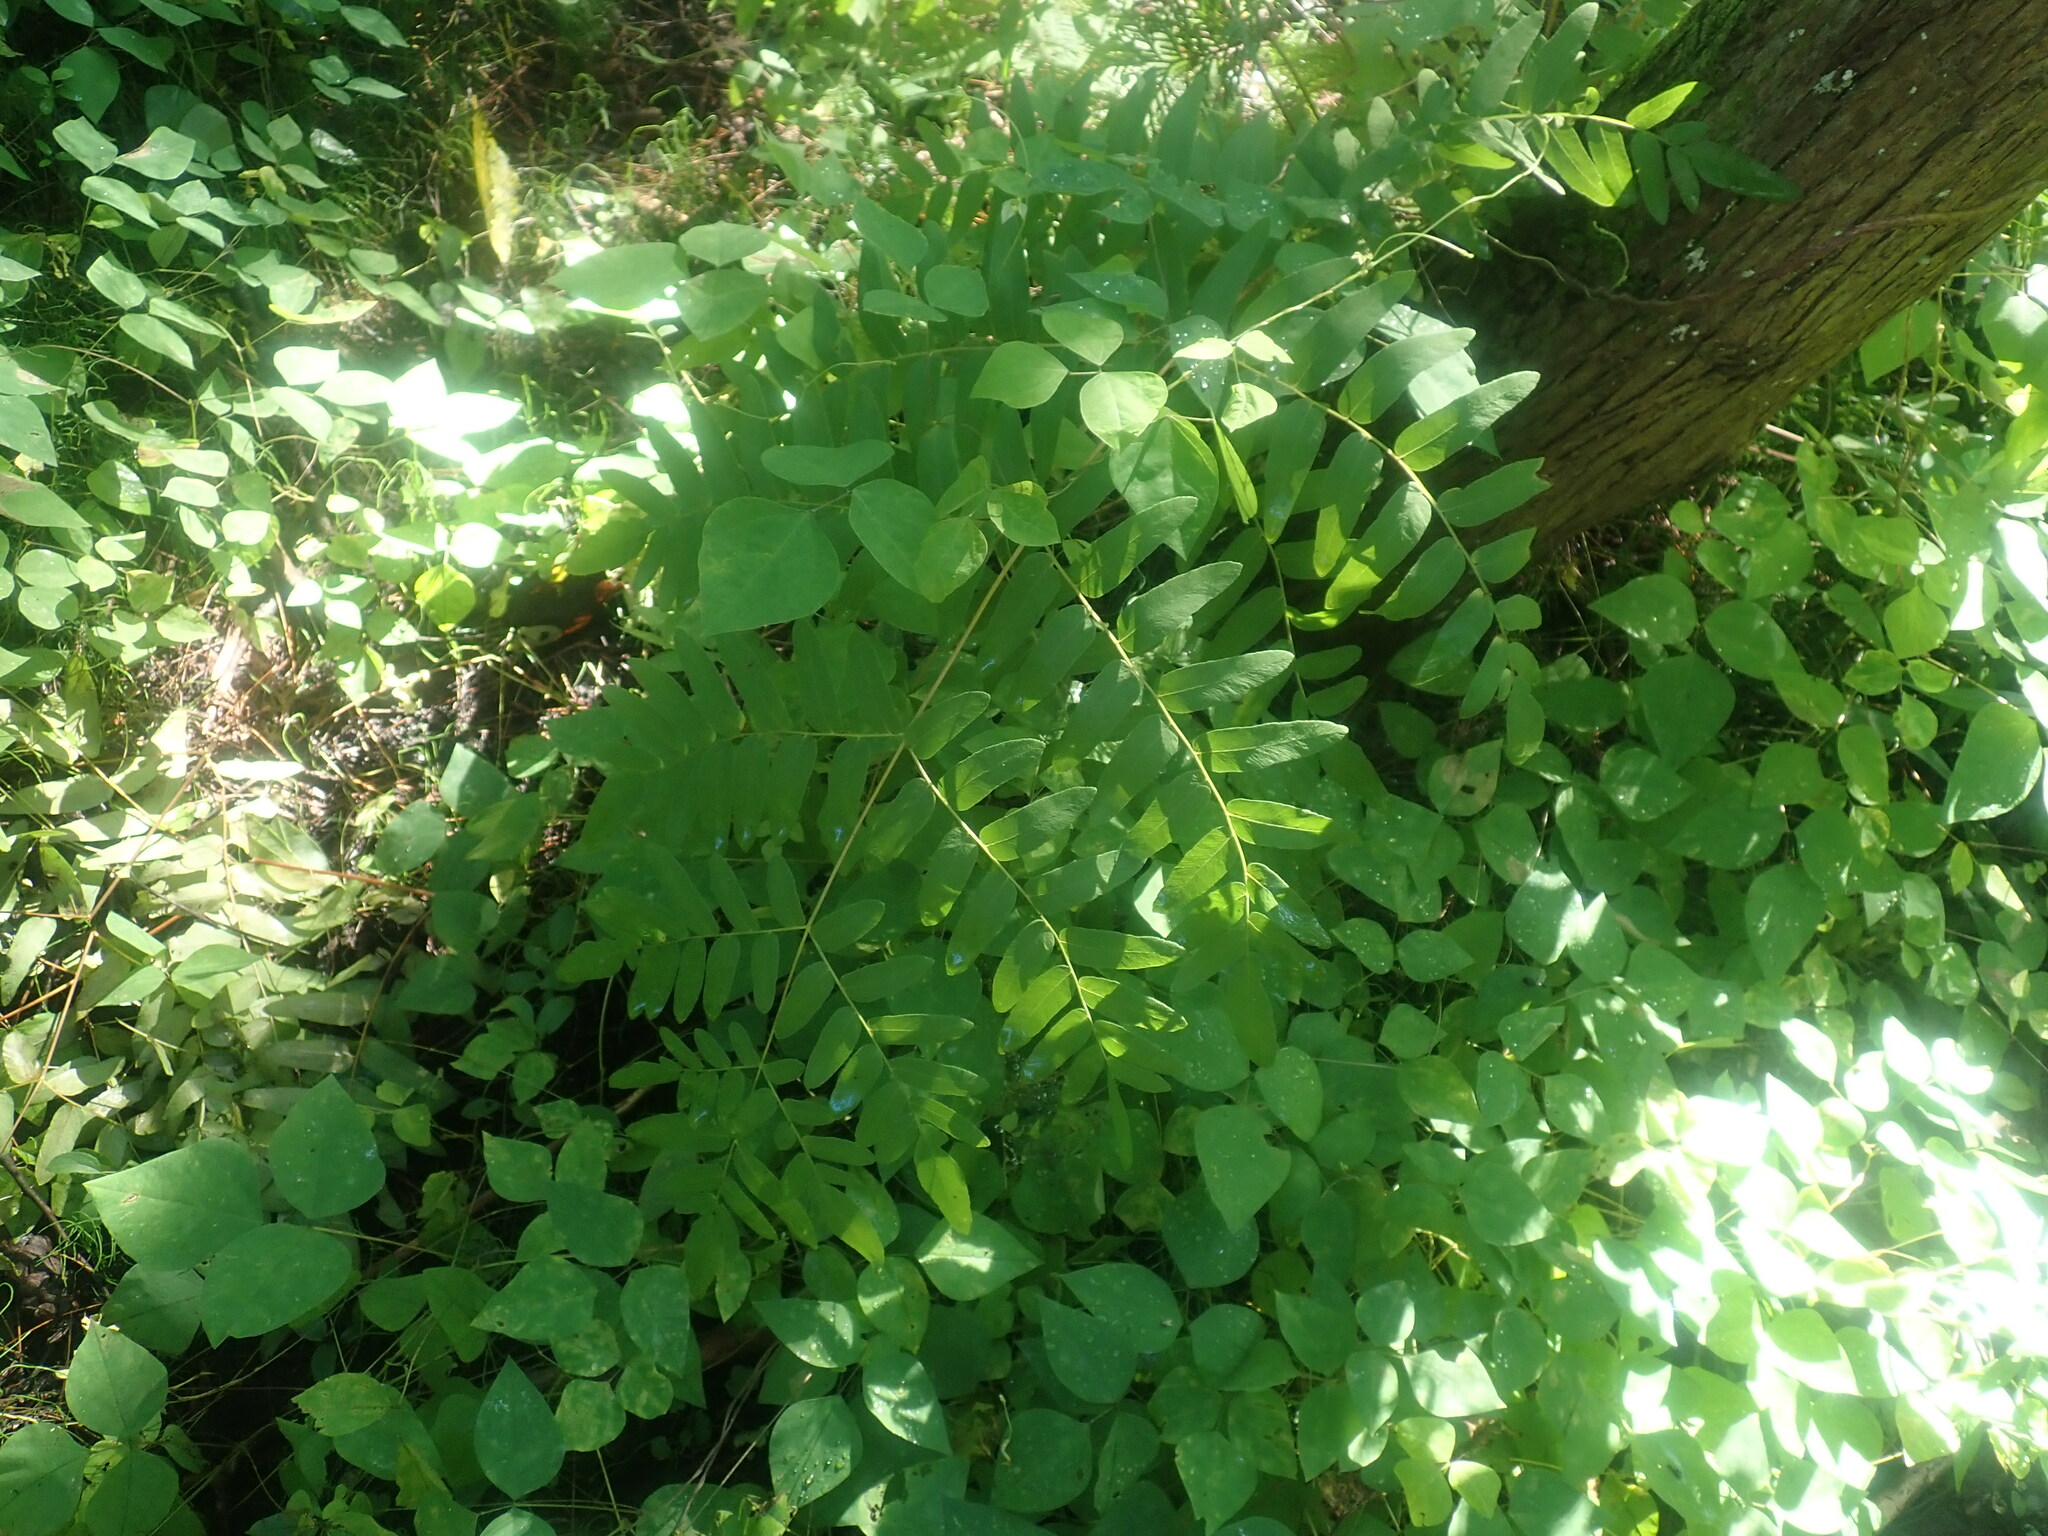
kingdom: Plantae
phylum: Tracheophyta
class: Polypodiopsida
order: Osmundales
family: Osmundaceae
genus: Osmunda
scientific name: Osmunda spectabilis
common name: American royal fern
